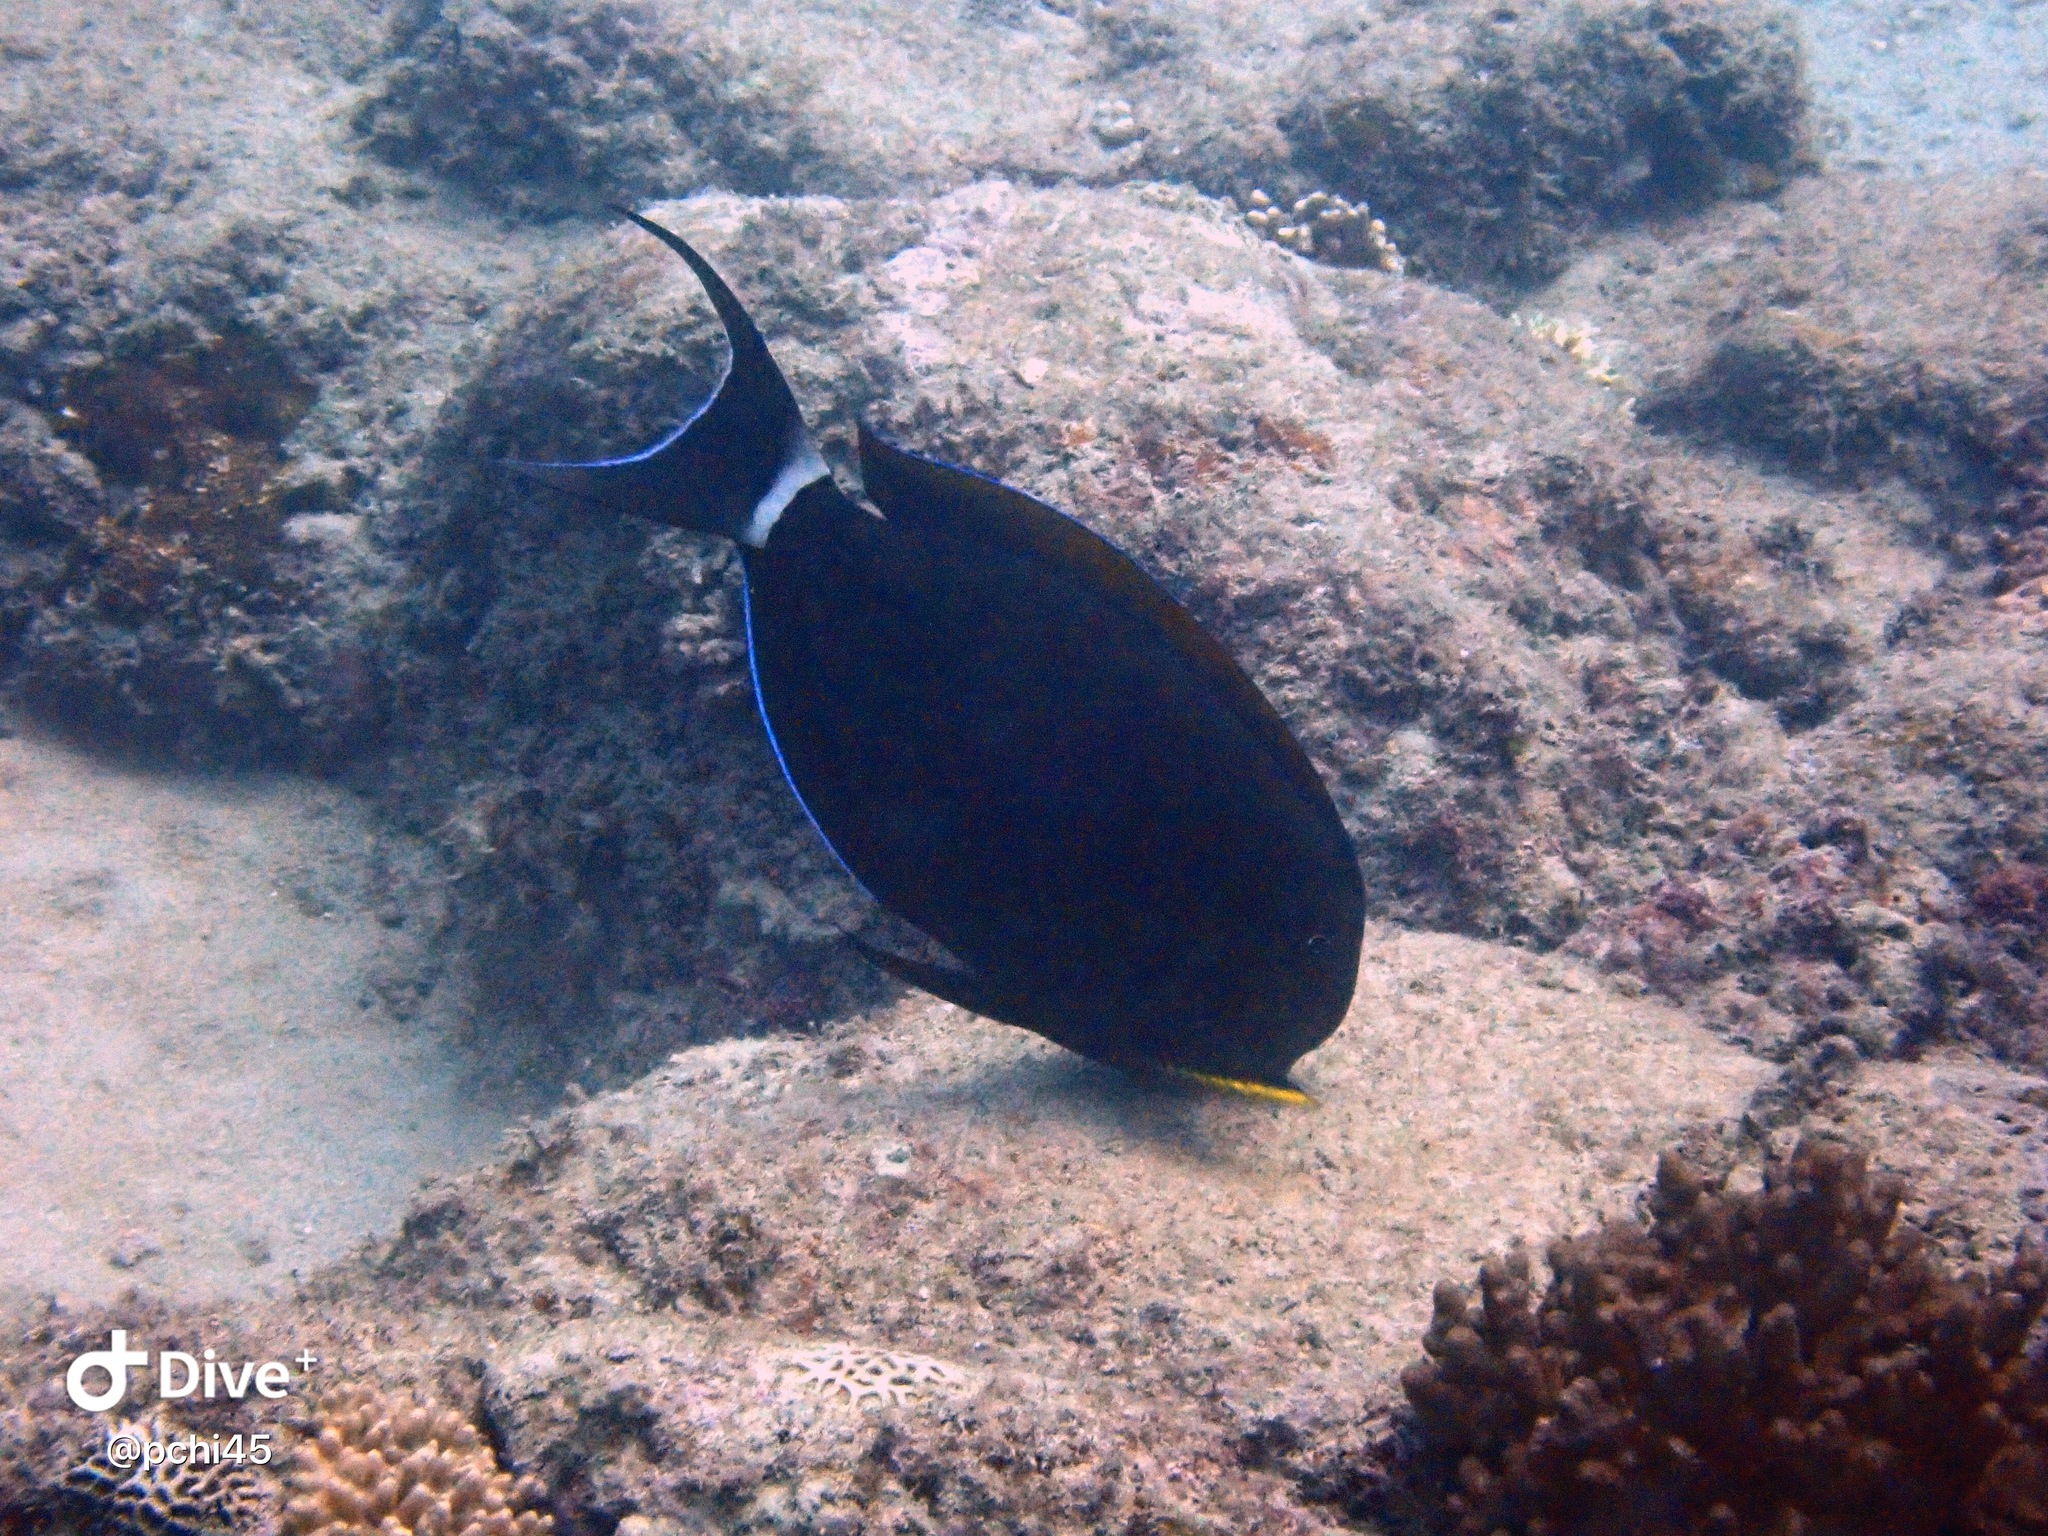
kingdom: Animalia
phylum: Chordata
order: Perciformes
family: Acanthuridae
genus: Acanthurus
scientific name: Acanthurus nigricauda
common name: Black-barred surgeonfish
